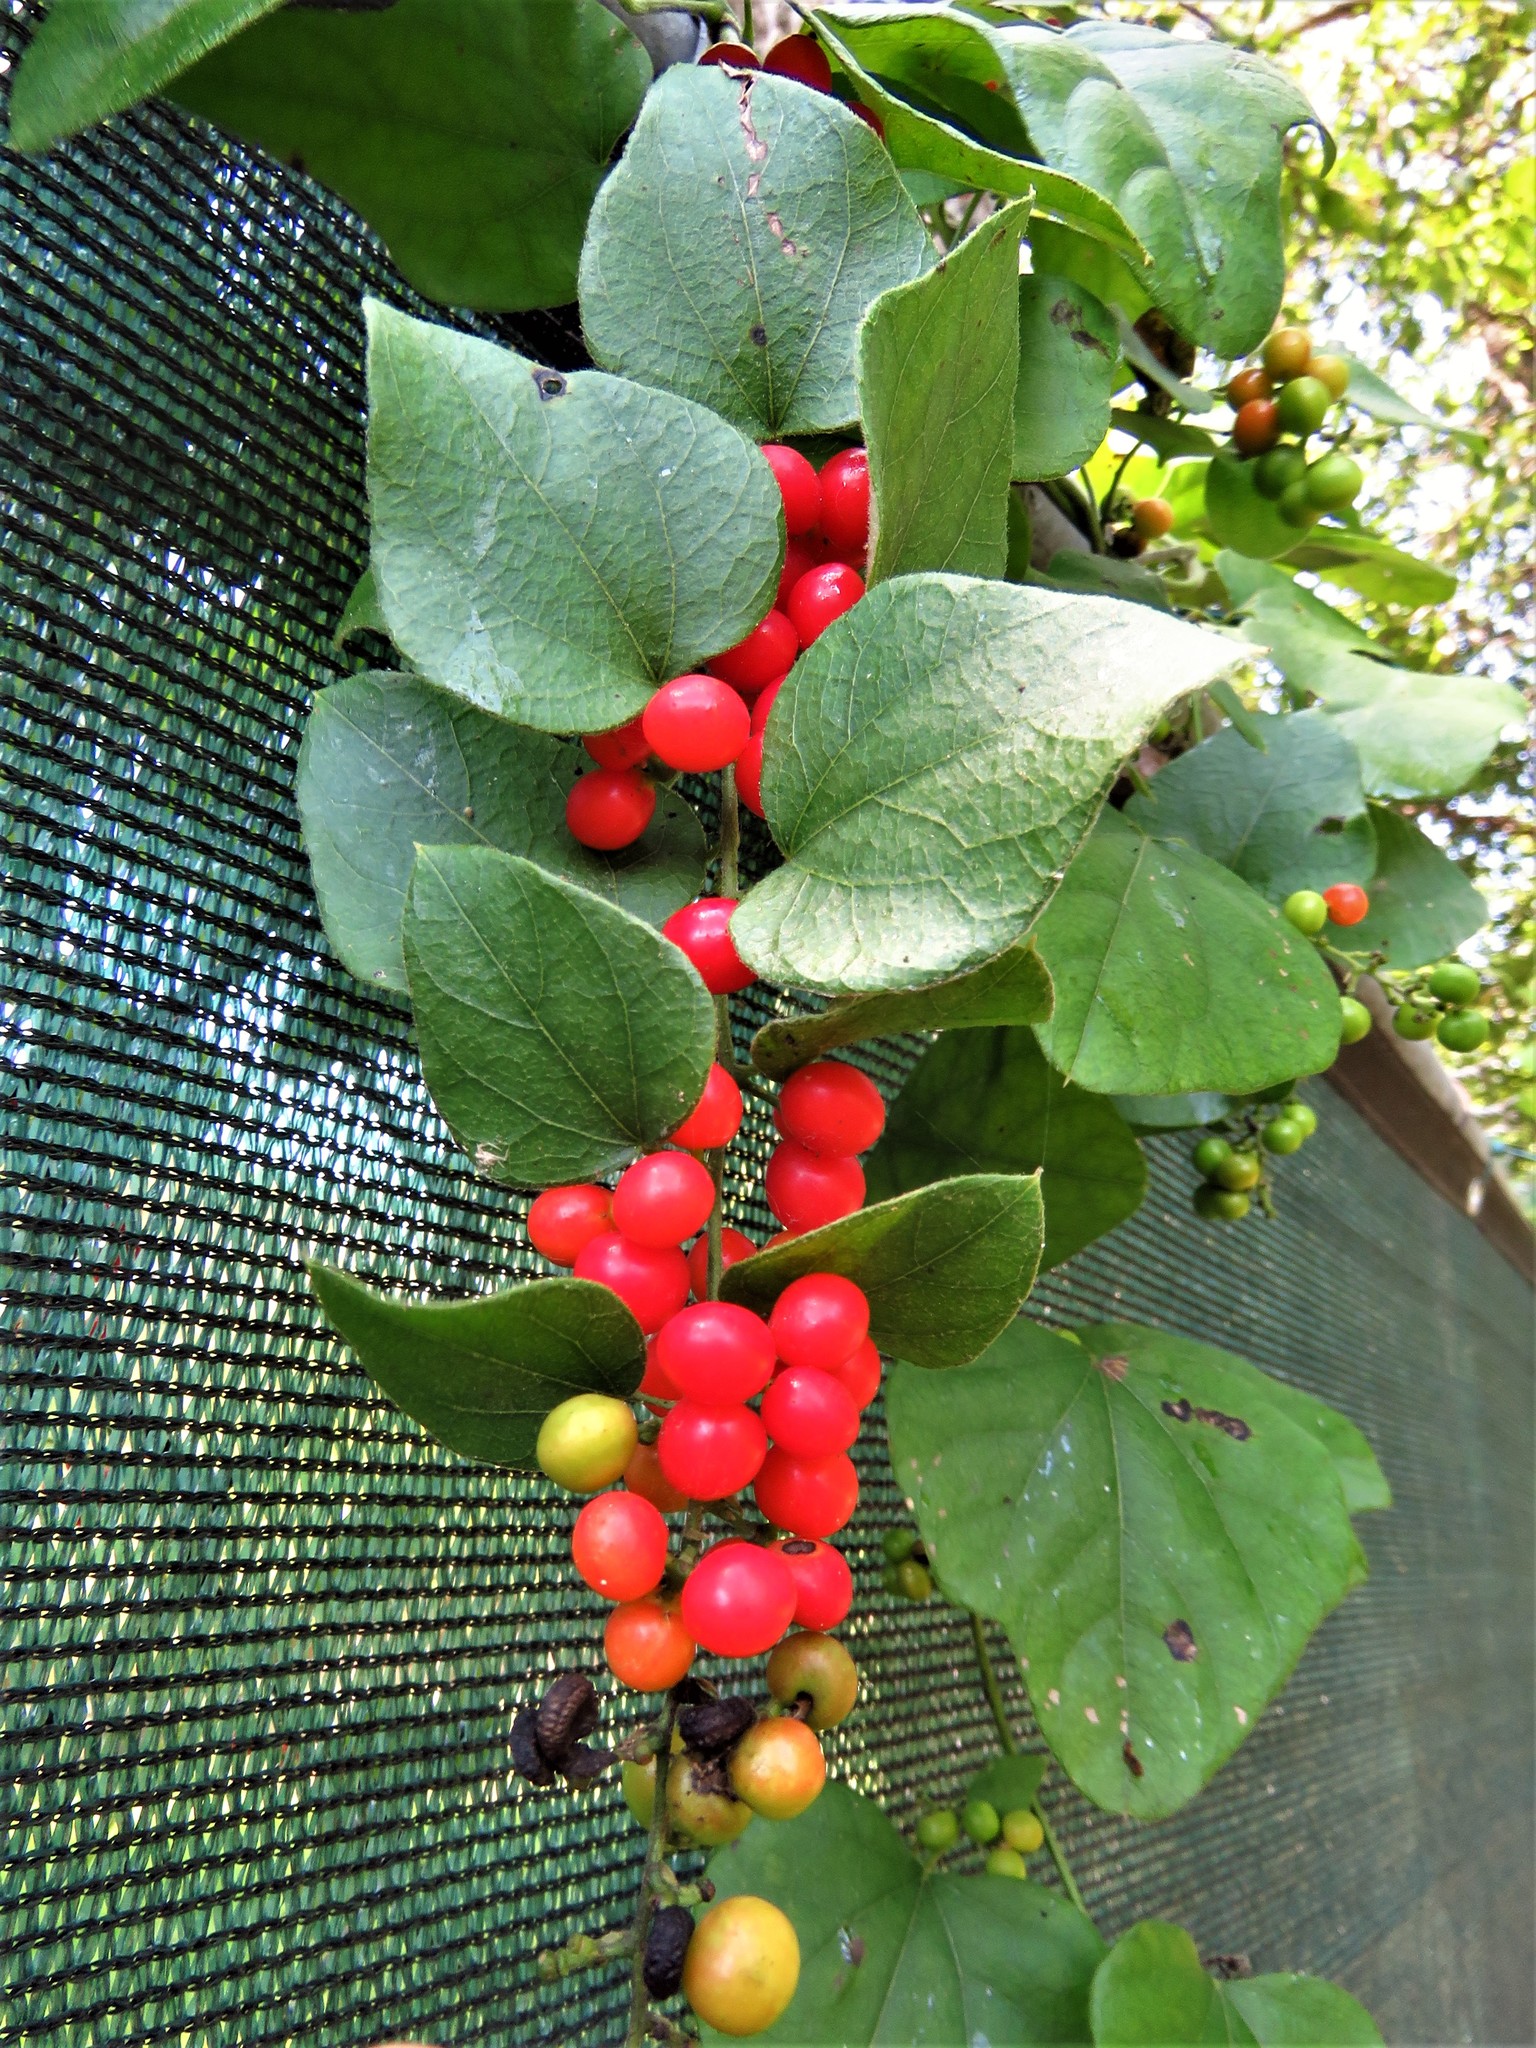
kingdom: Plantae
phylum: Tracheophyta
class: Magnoliopsida
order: Ranunculales
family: Menispermaceae
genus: Cocculus
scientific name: Cocculus carolinus
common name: Carolina moonseed
